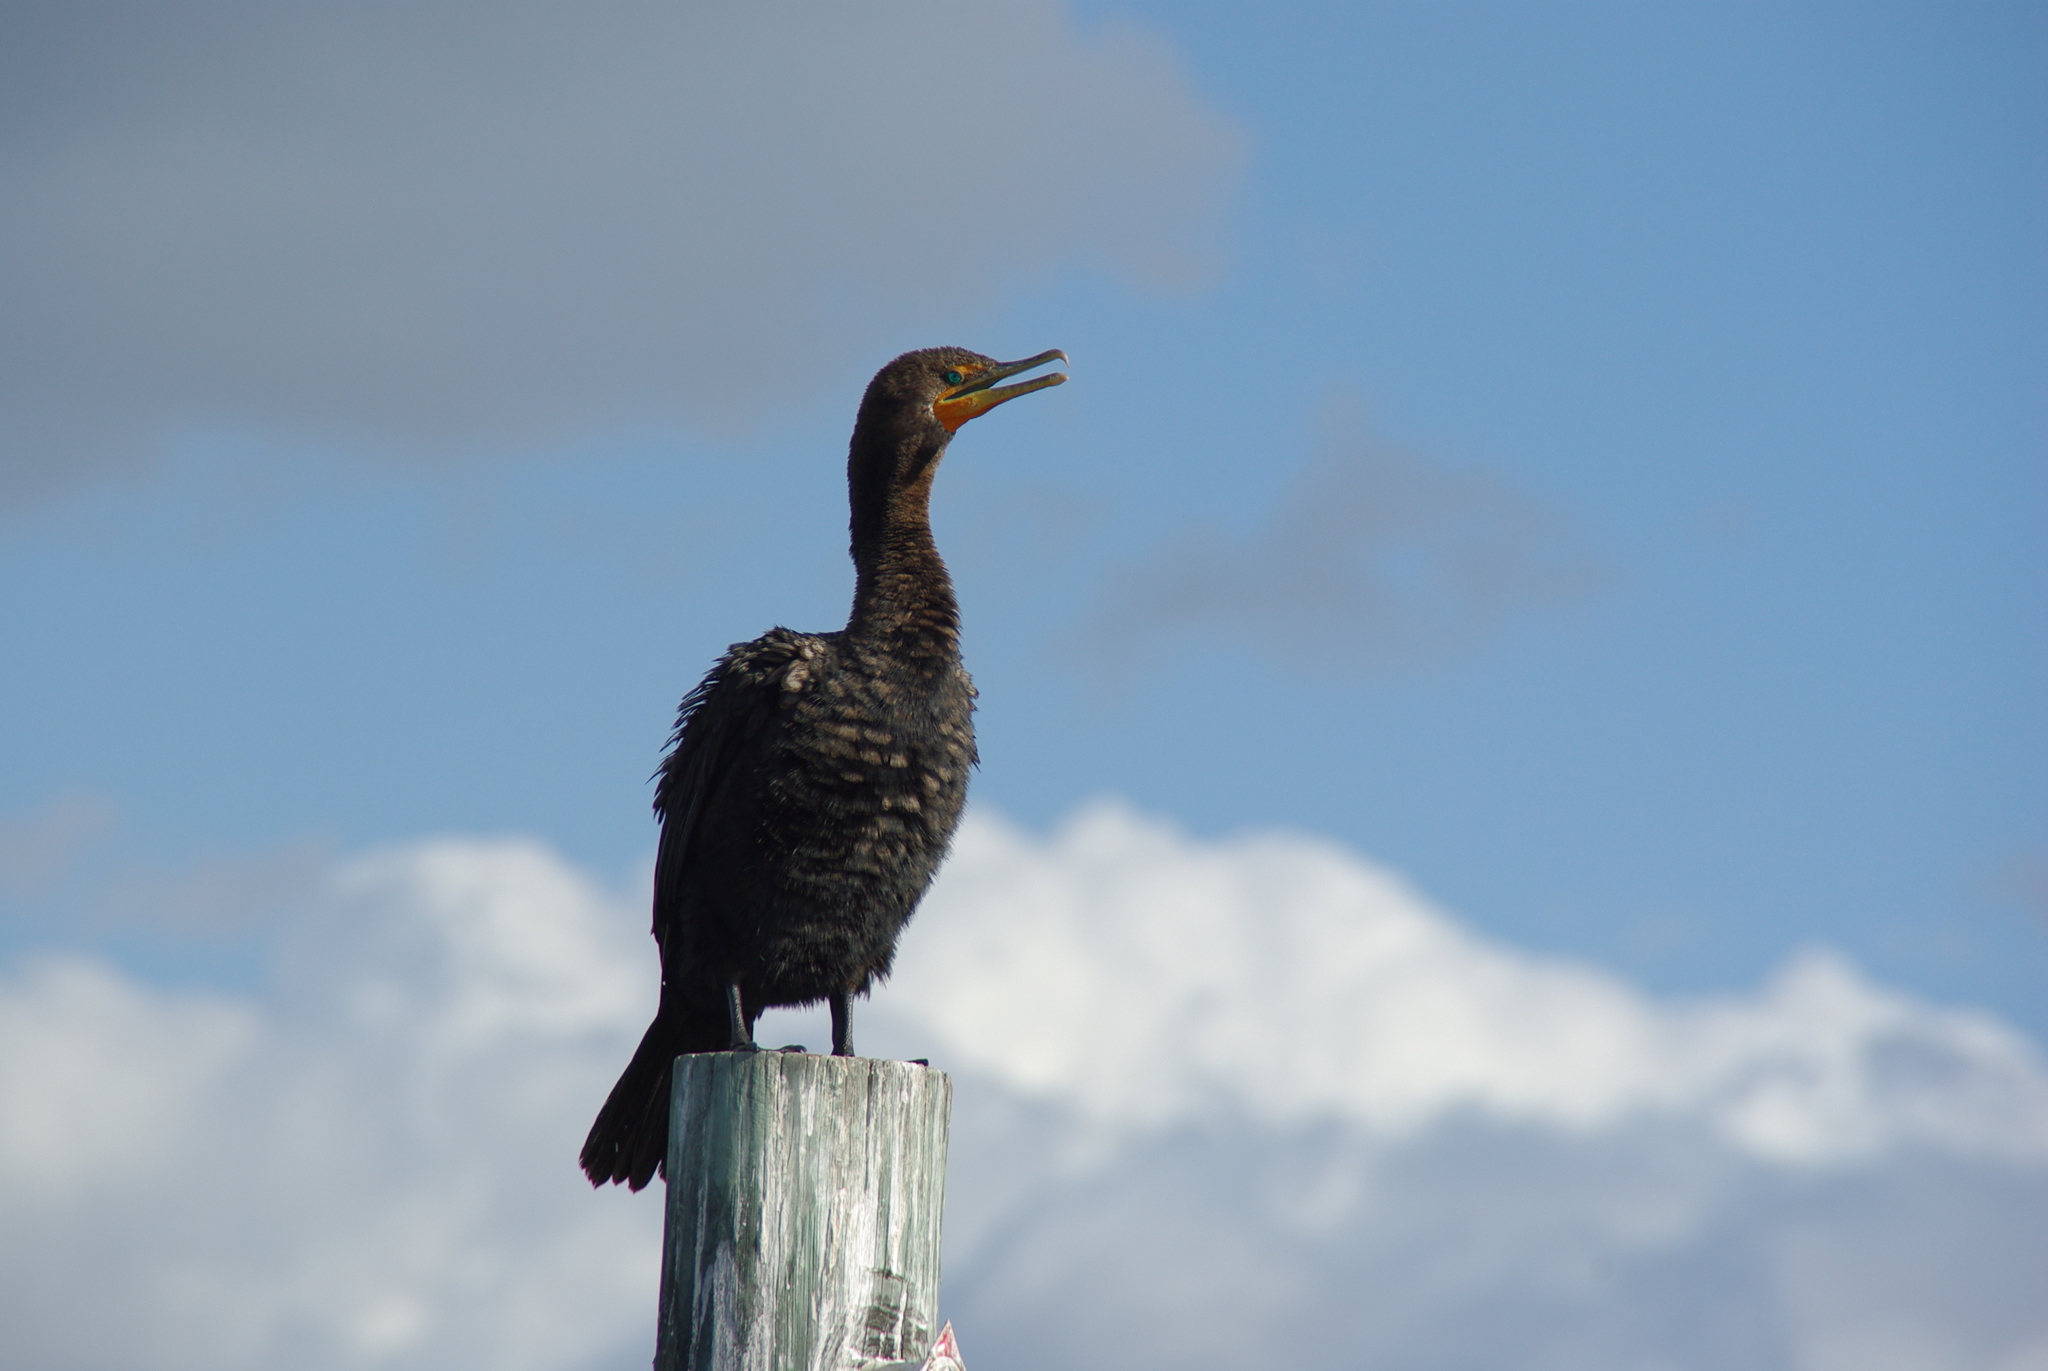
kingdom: Animalia
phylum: Chordata
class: Aves
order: Suliformes
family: Phalacrocoracidae
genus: Phalacrocorax
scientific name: Phalacrocorax auritus
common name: Double-crested cormorant
